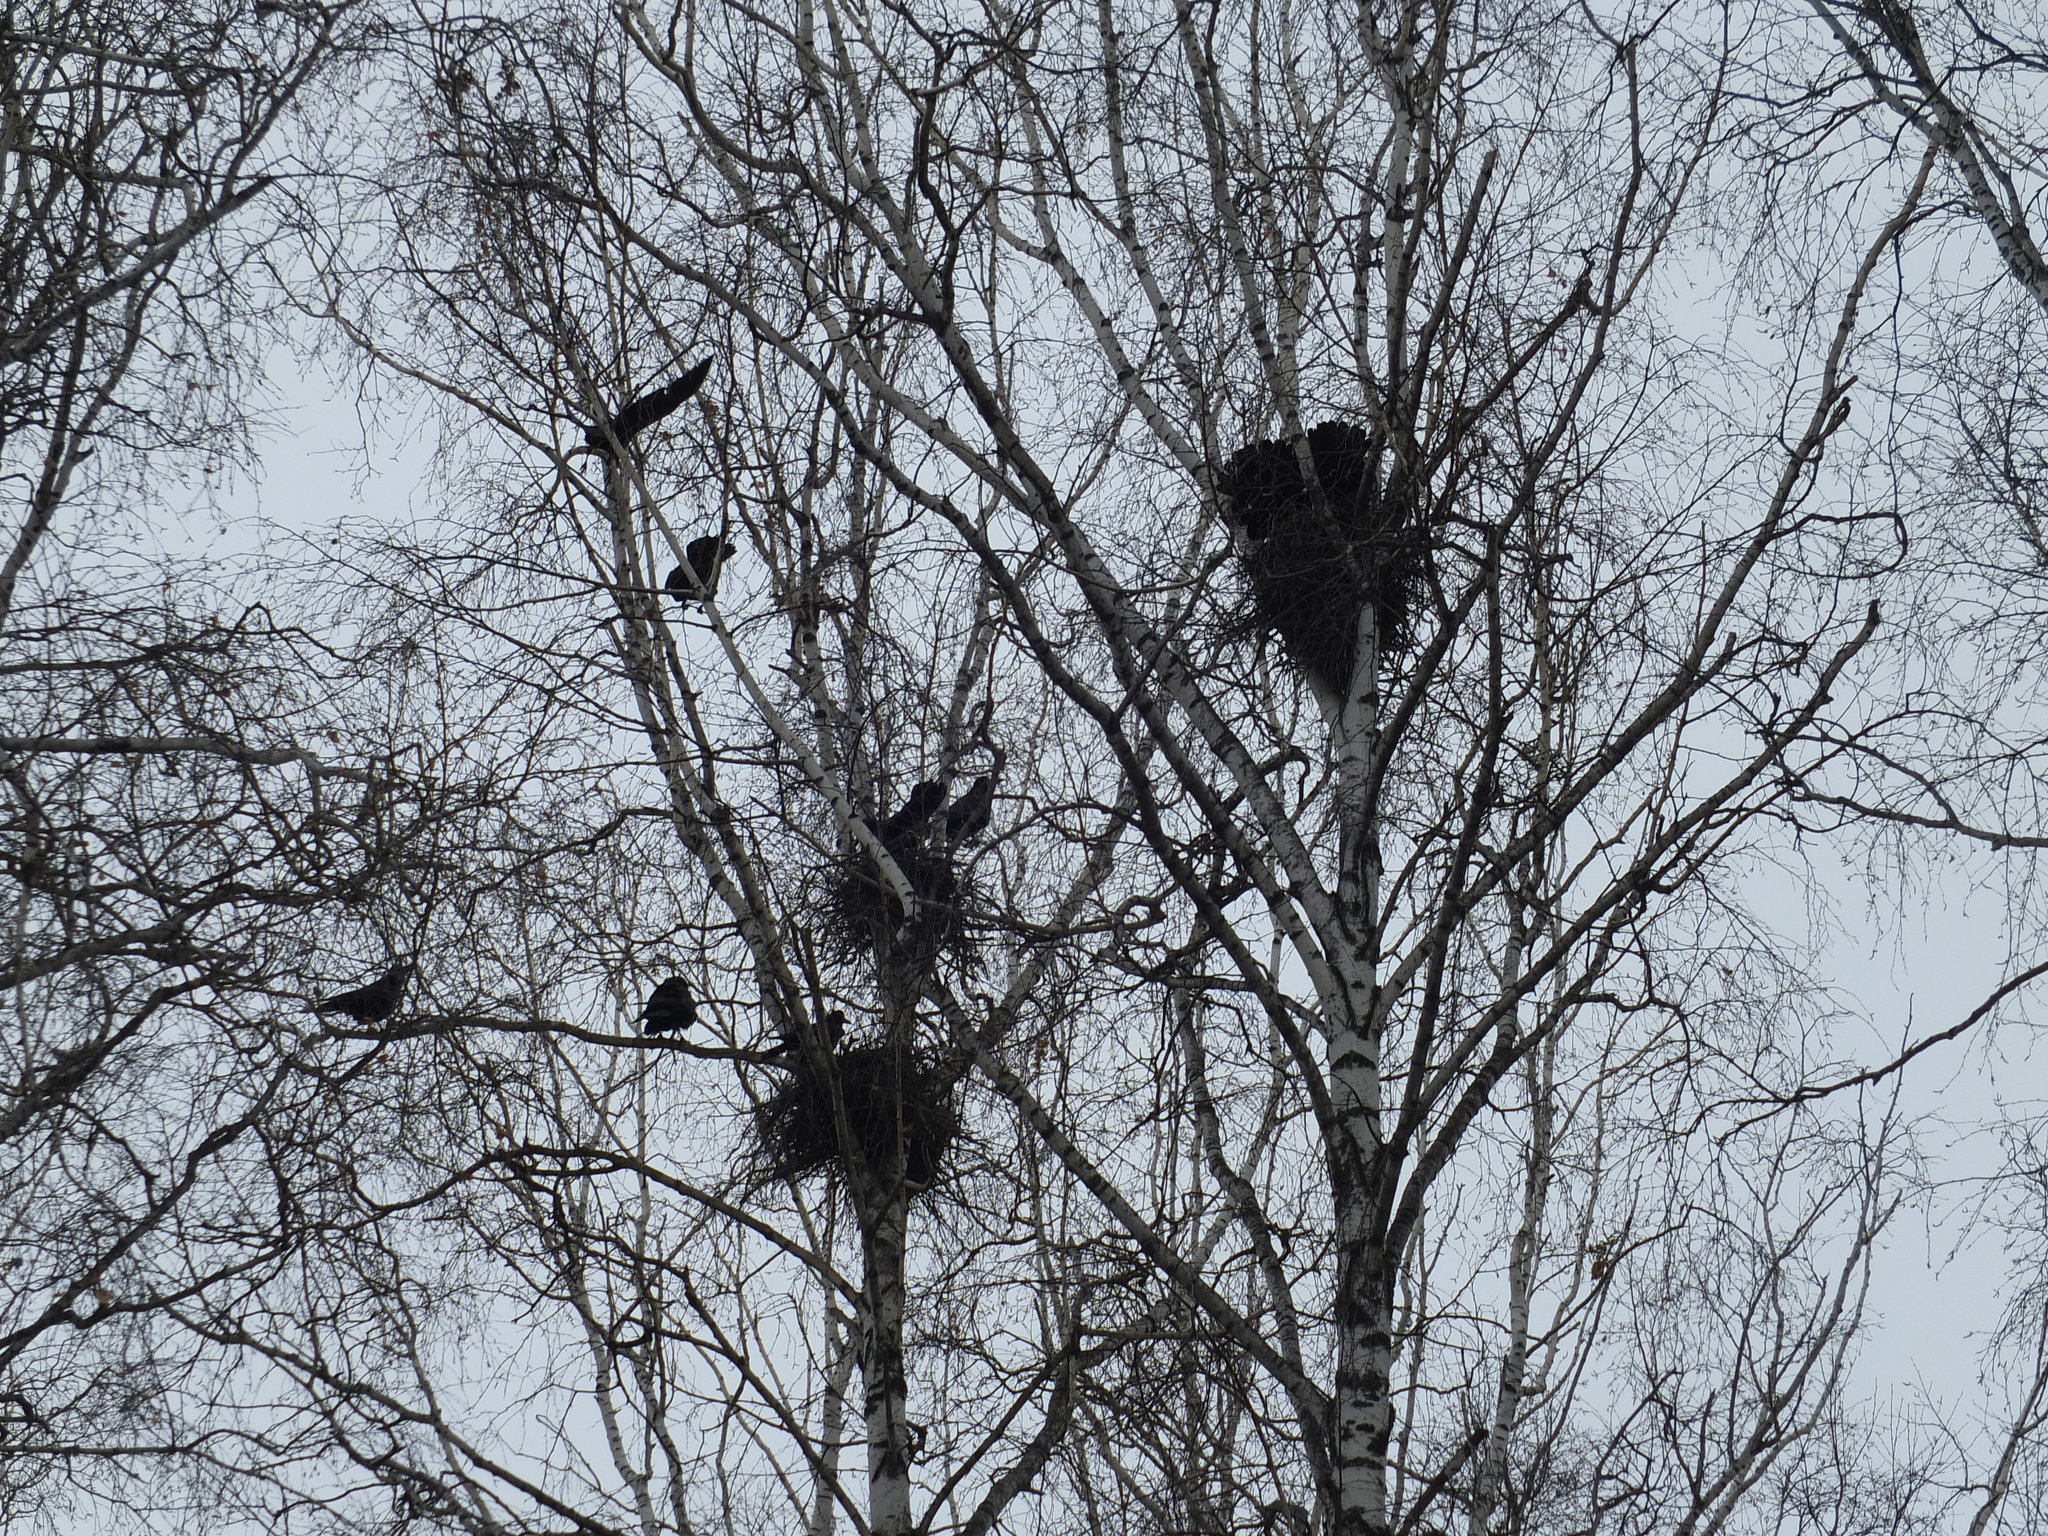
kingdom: Animalia
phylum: Chordata
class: Aves
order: Passeriformes
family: Corvidae
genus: Corvus
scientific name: Corvus frugilegus
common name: Rook
